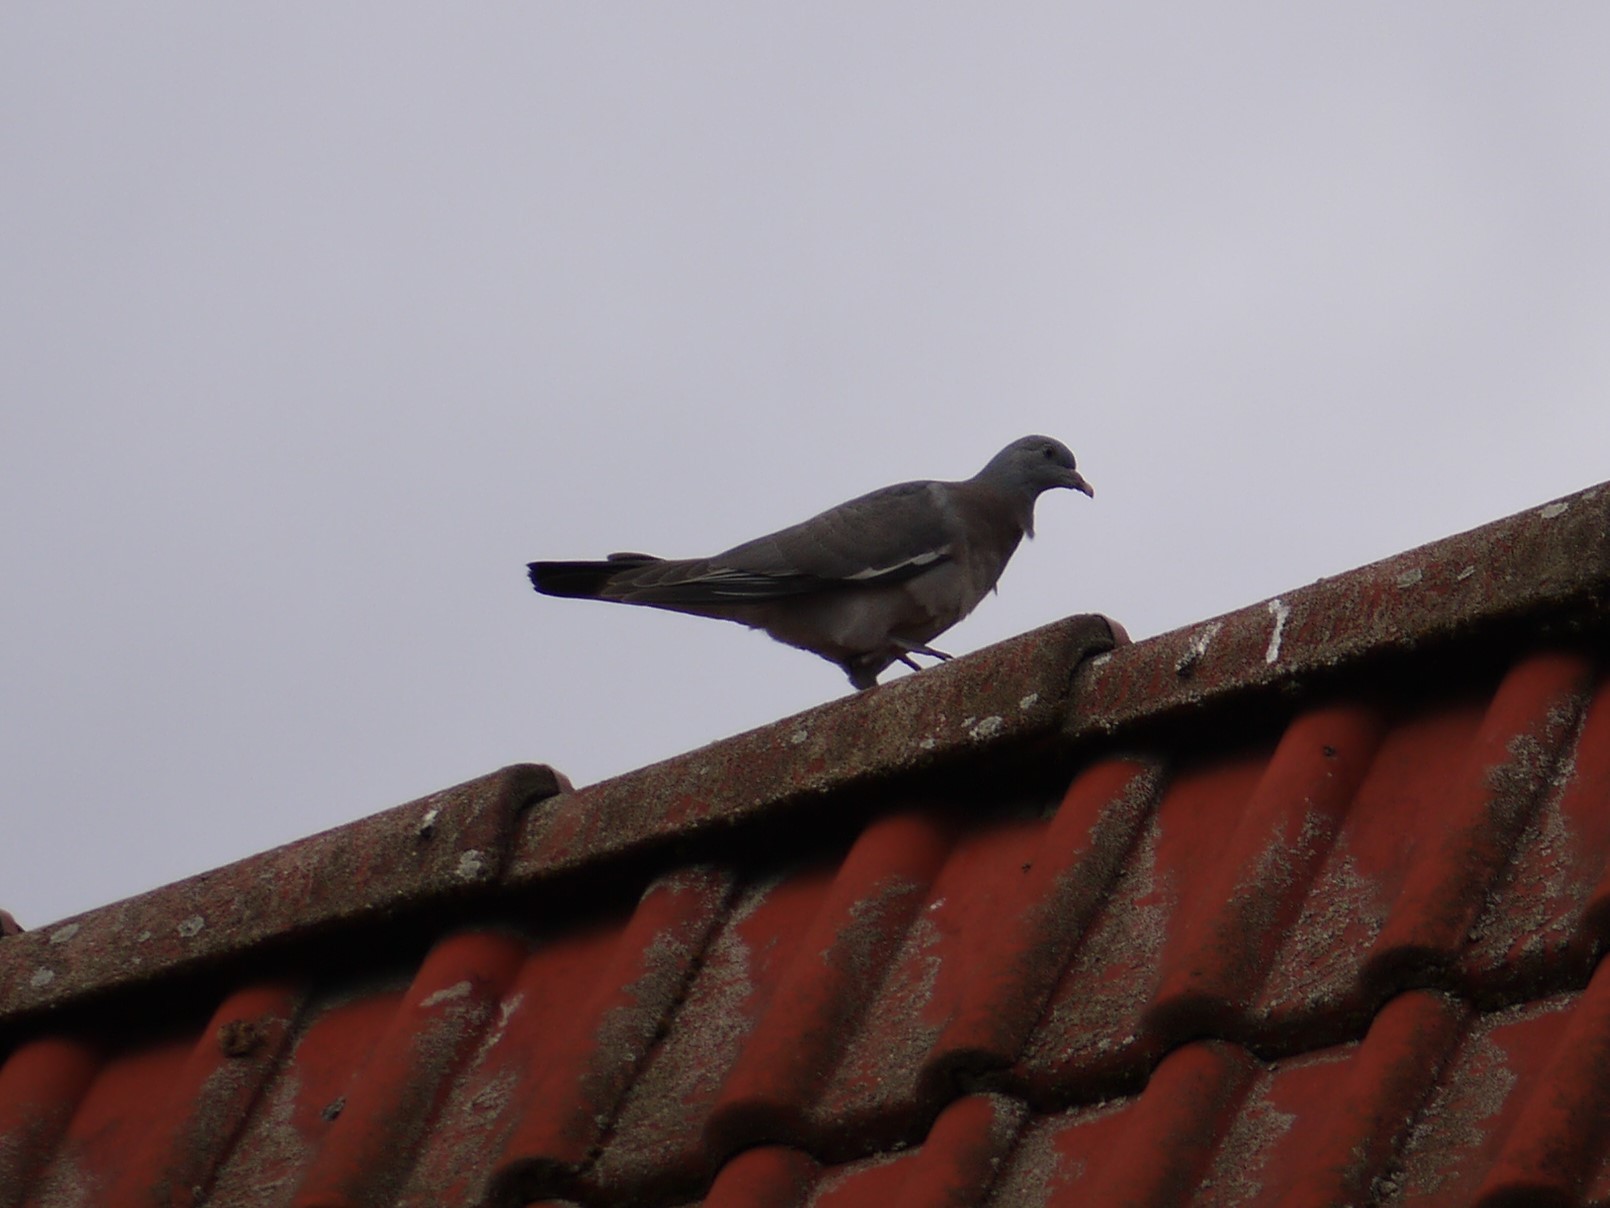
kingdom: Animalia
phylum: Chordata
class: Aves
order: Columbiformes
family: Columbidae
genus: Columba
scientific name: Columba palumbus
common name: Common wood pigeon
